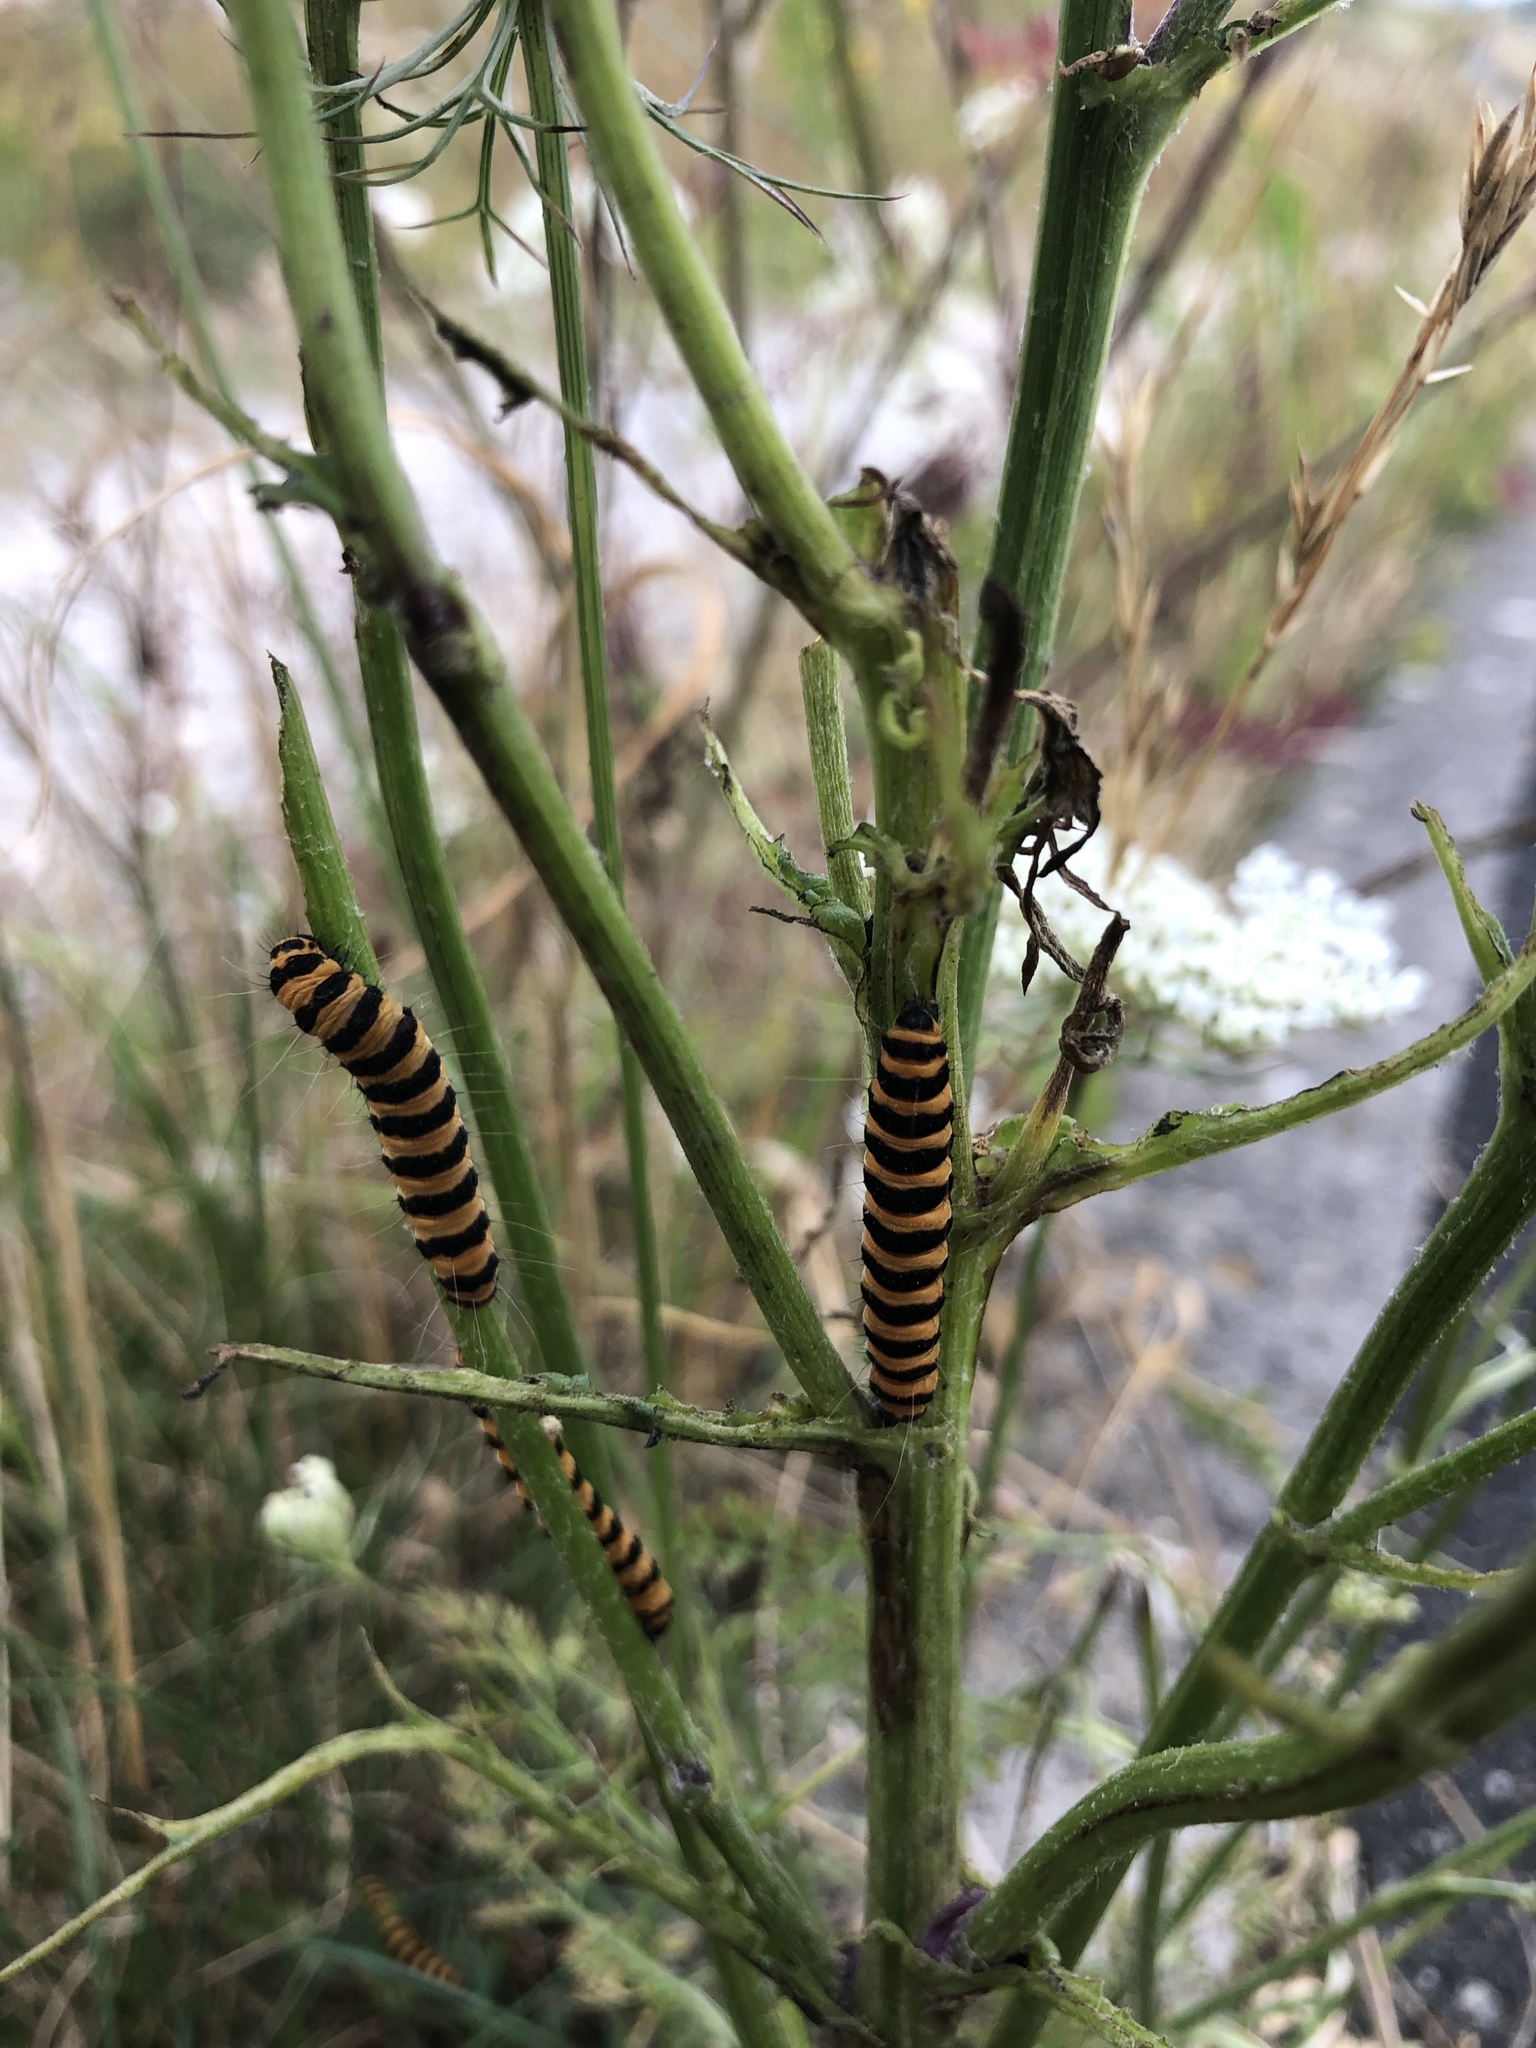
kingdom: Animalia
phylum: Arthropoda
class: Insecta
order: Lepidoptera
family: Erebidae
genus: Tyria
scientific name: Tyria jacobaeae
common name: Cinnabar
